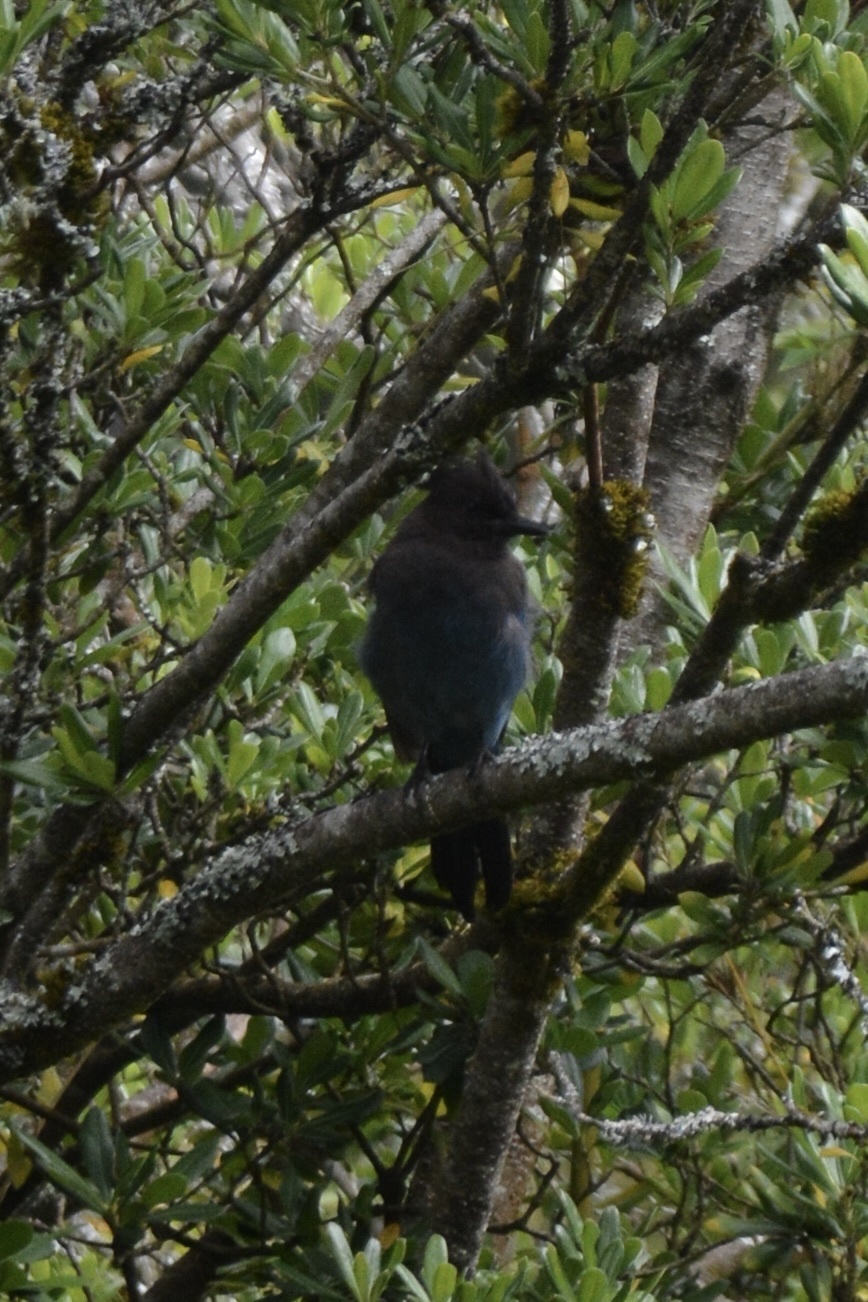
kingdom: Animalia
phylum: Chordata
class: Aves
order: Passeriformes
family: Corvidae
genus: Cyanocitta
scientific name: Cyanocitta stelleri
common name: Steller's jay
